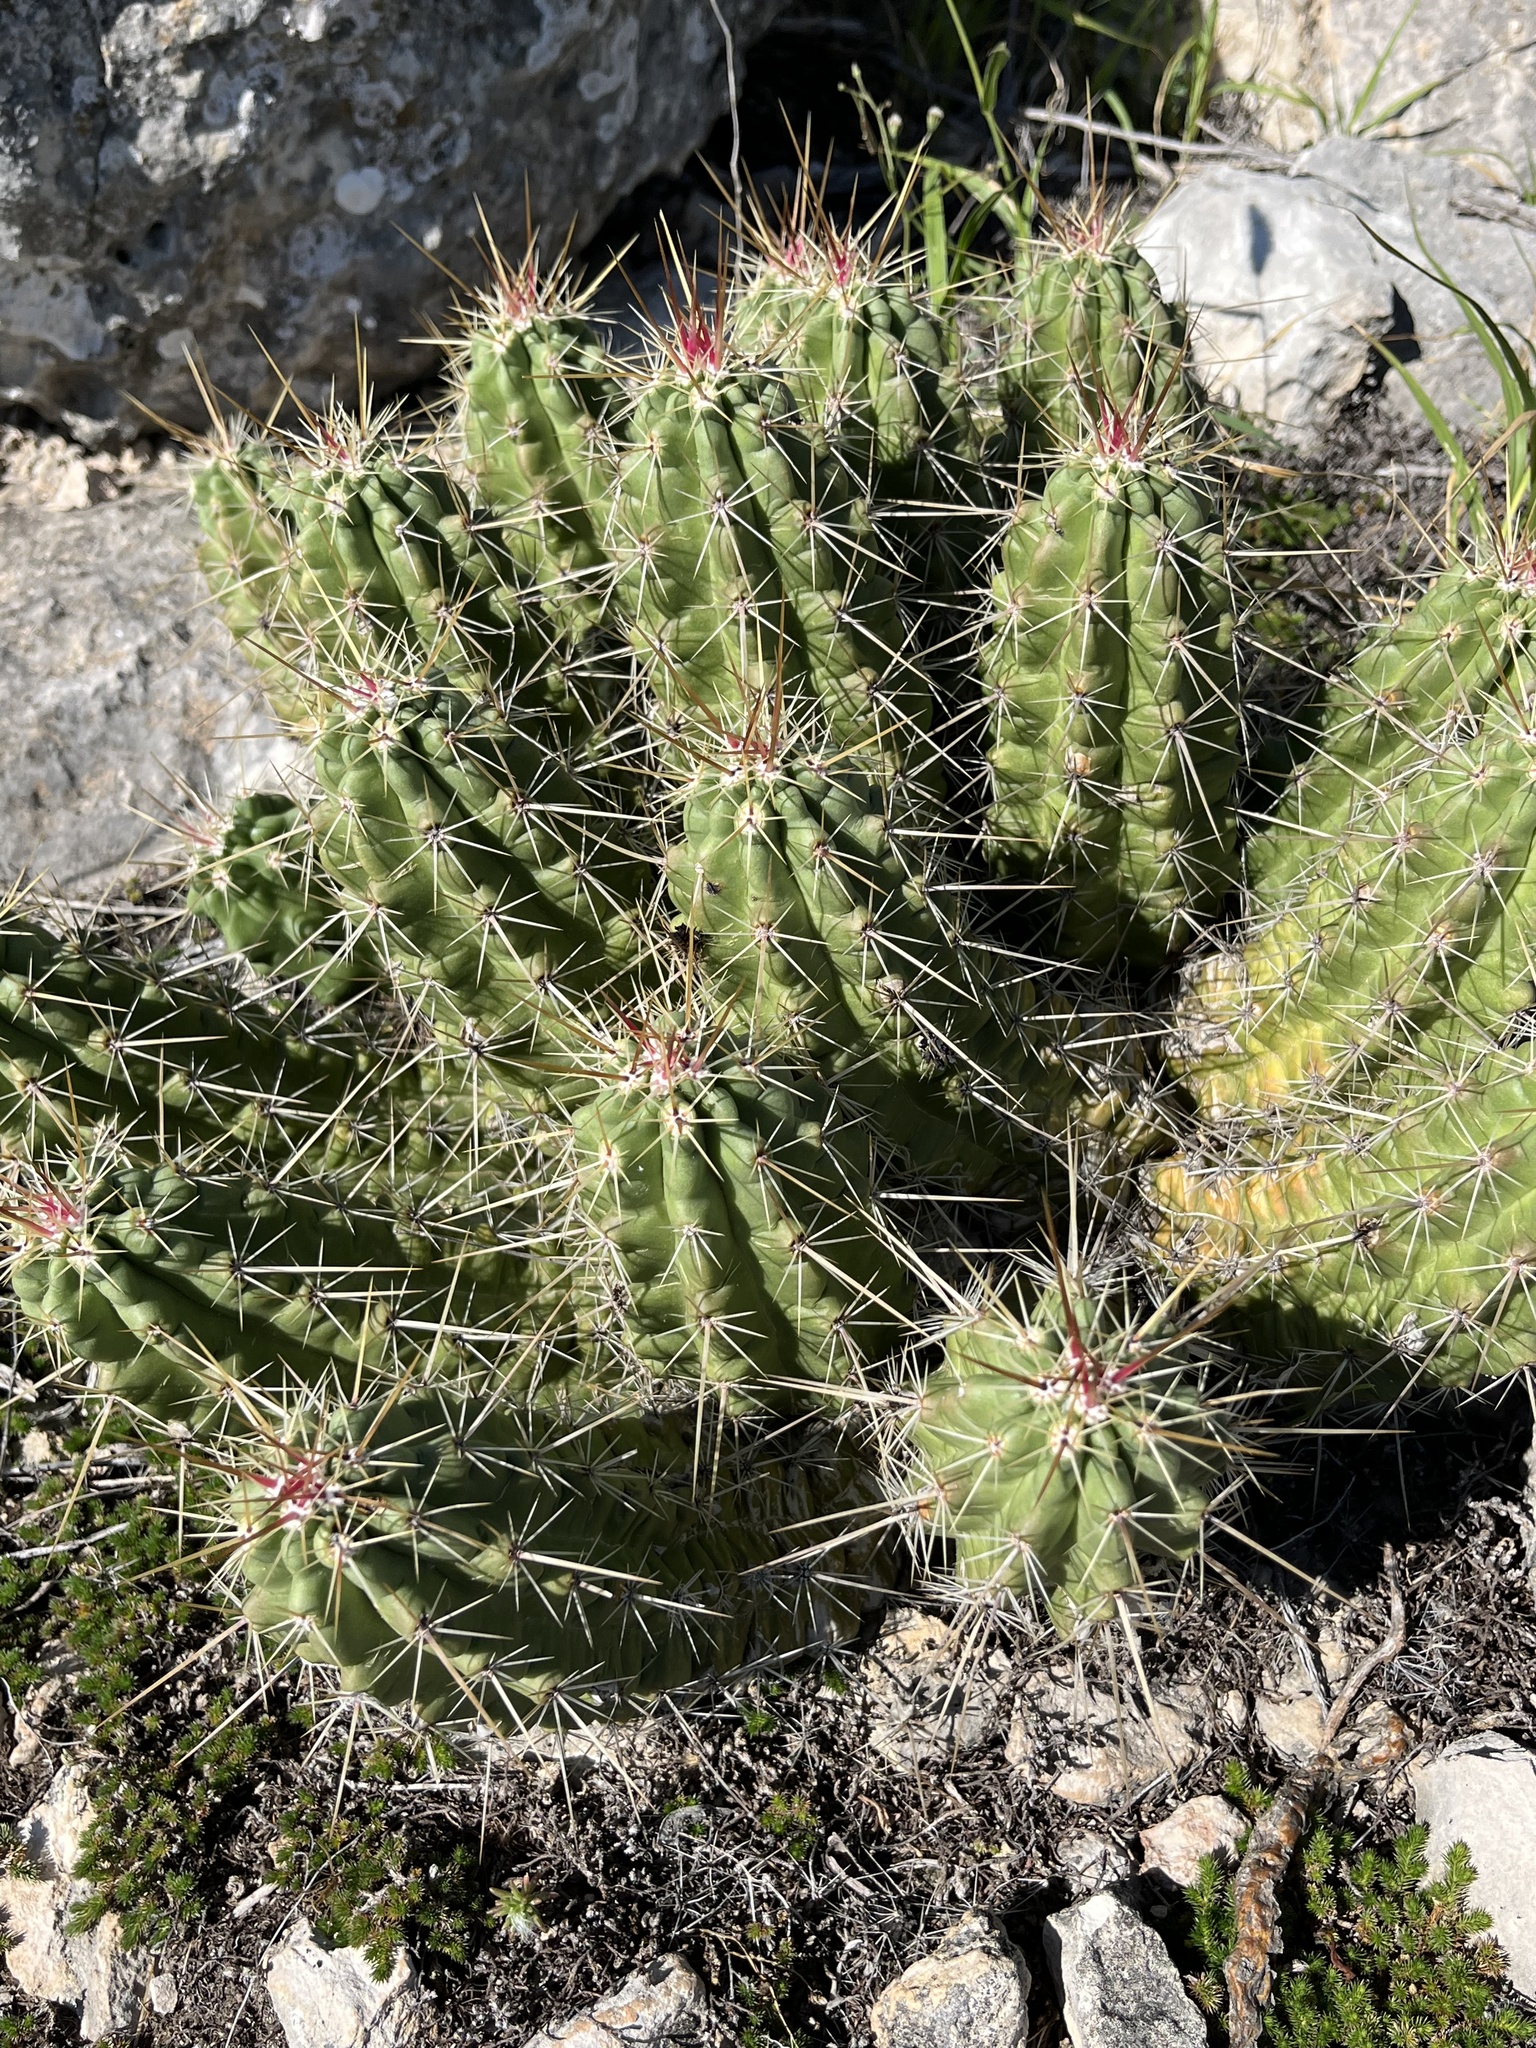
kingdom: Plantae
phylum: Tracheophyta
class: Magnoliopsida
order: Caryophyllales
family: Cactaceae
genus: Echinocereus
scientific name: Echinocereus enneacanthus
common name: Pitaya
